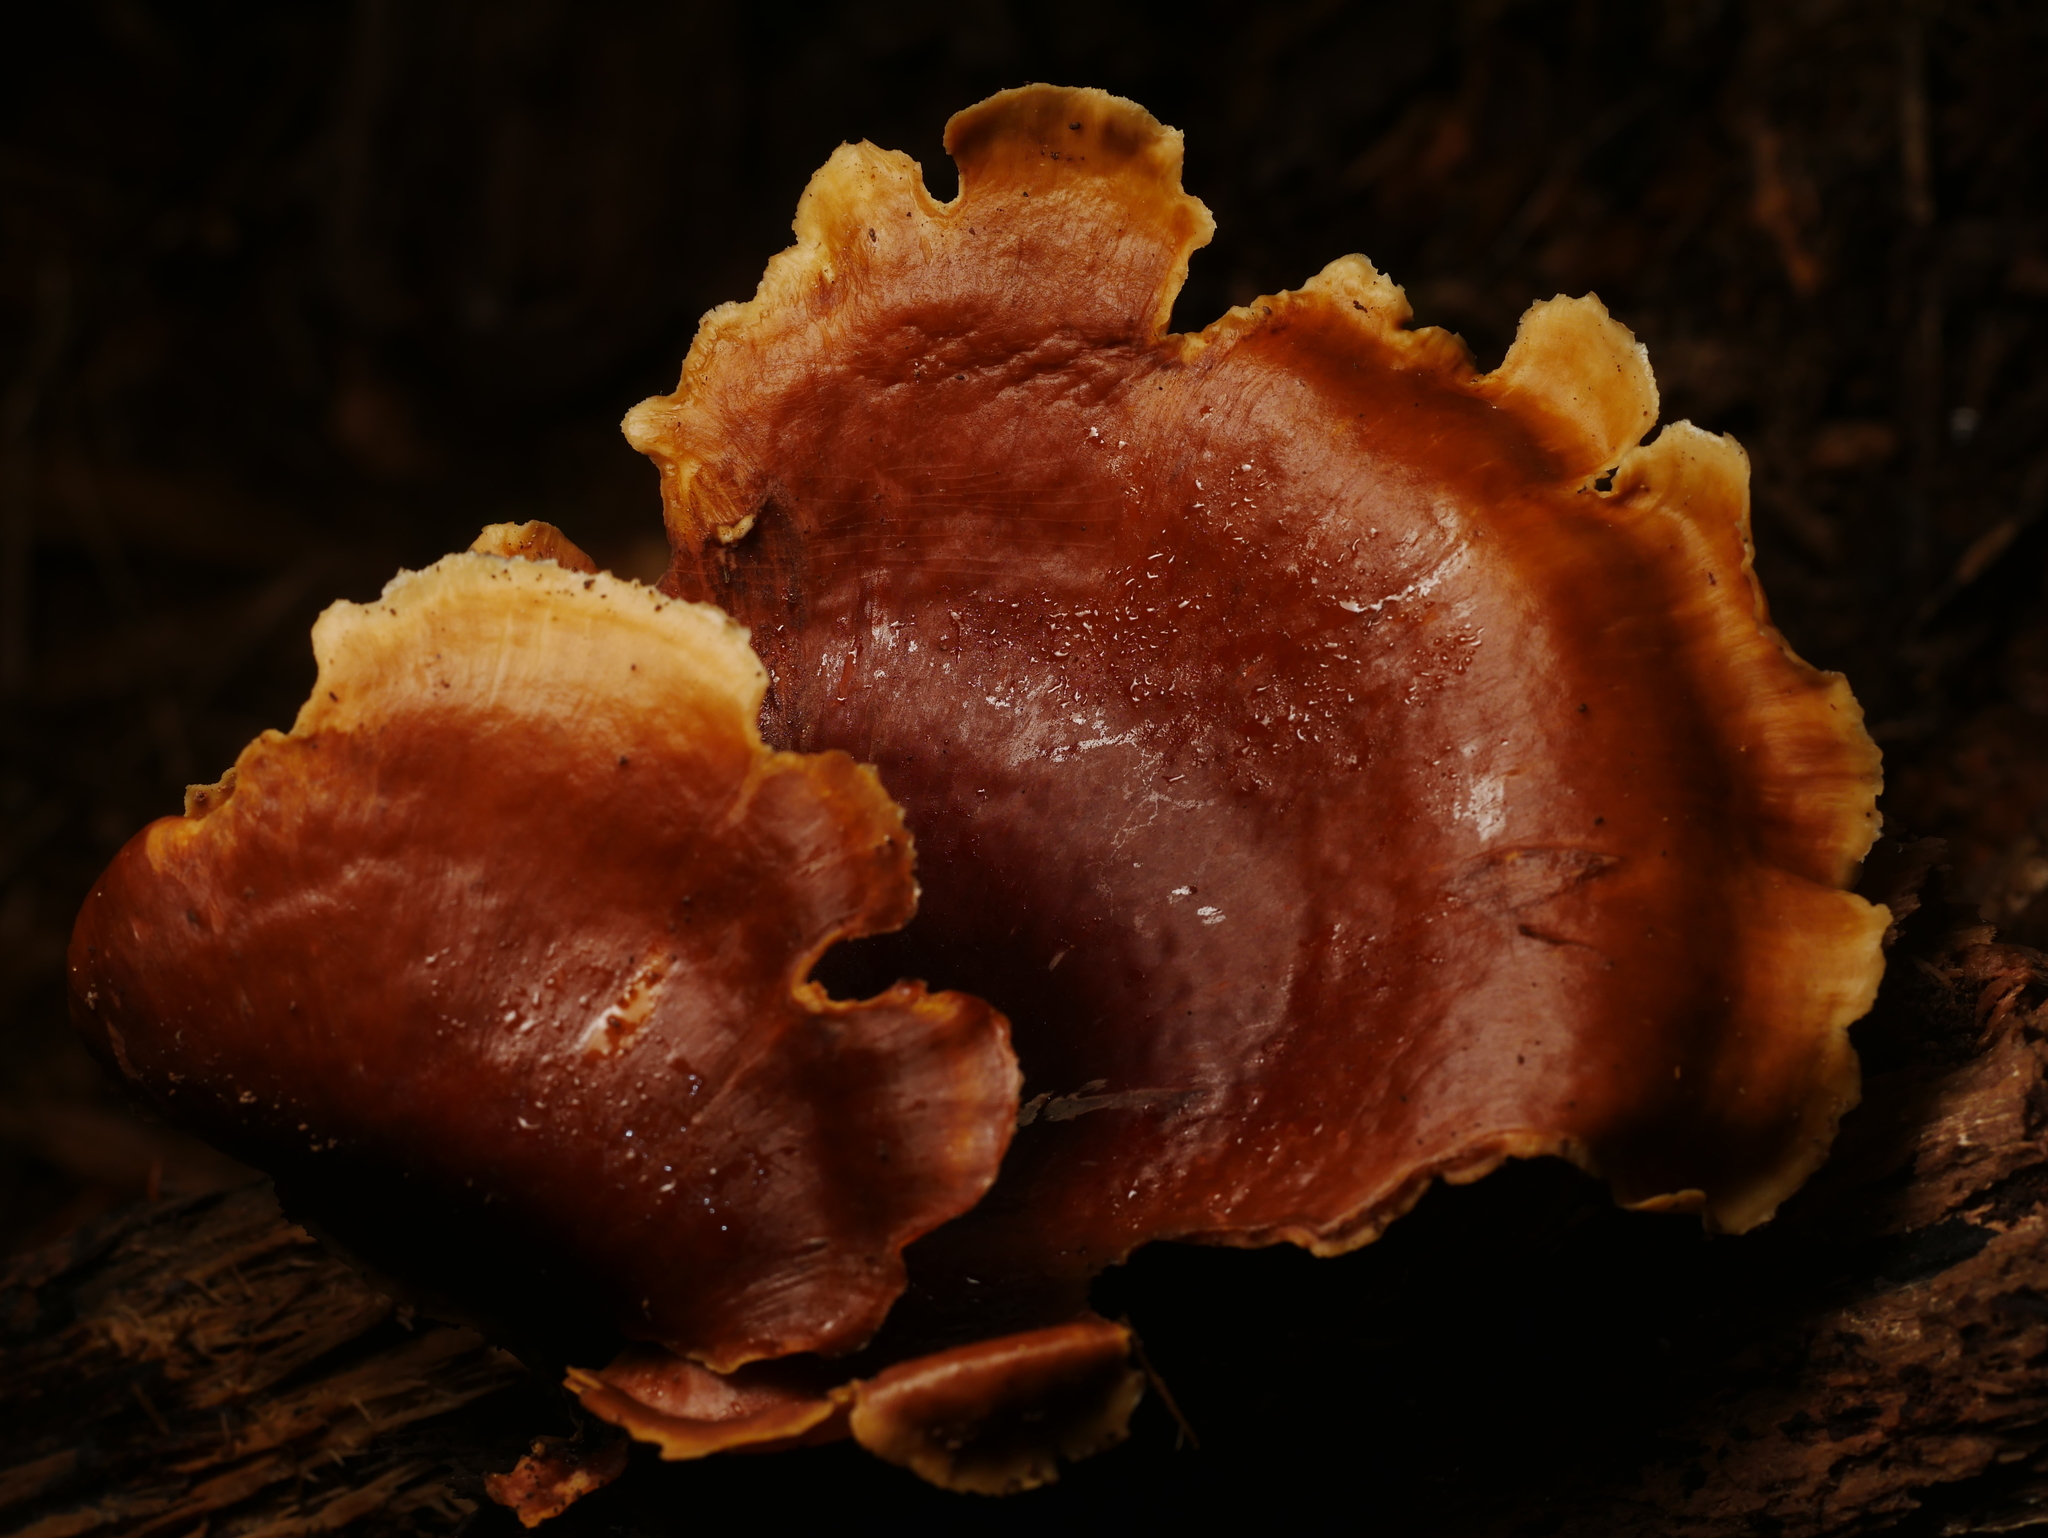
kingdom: Fungi
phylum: Basidiomycota
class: Agaricomycetes
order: Polyporales
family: Polyporaceae
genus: Picipes
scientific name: Picipes badius
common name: Bay polypore
